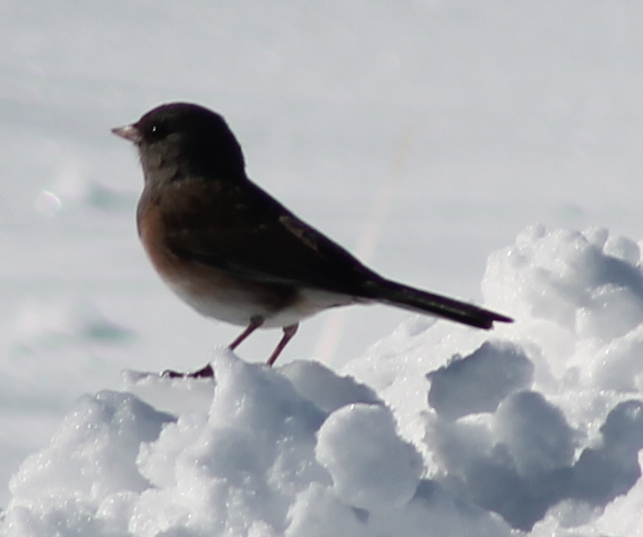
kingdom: Animalia
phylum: Chordata
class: Aves
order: Passeriformes
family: Passerellidae
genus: Junco
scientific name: Junco hyemalis
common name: Dark-eyed junco
